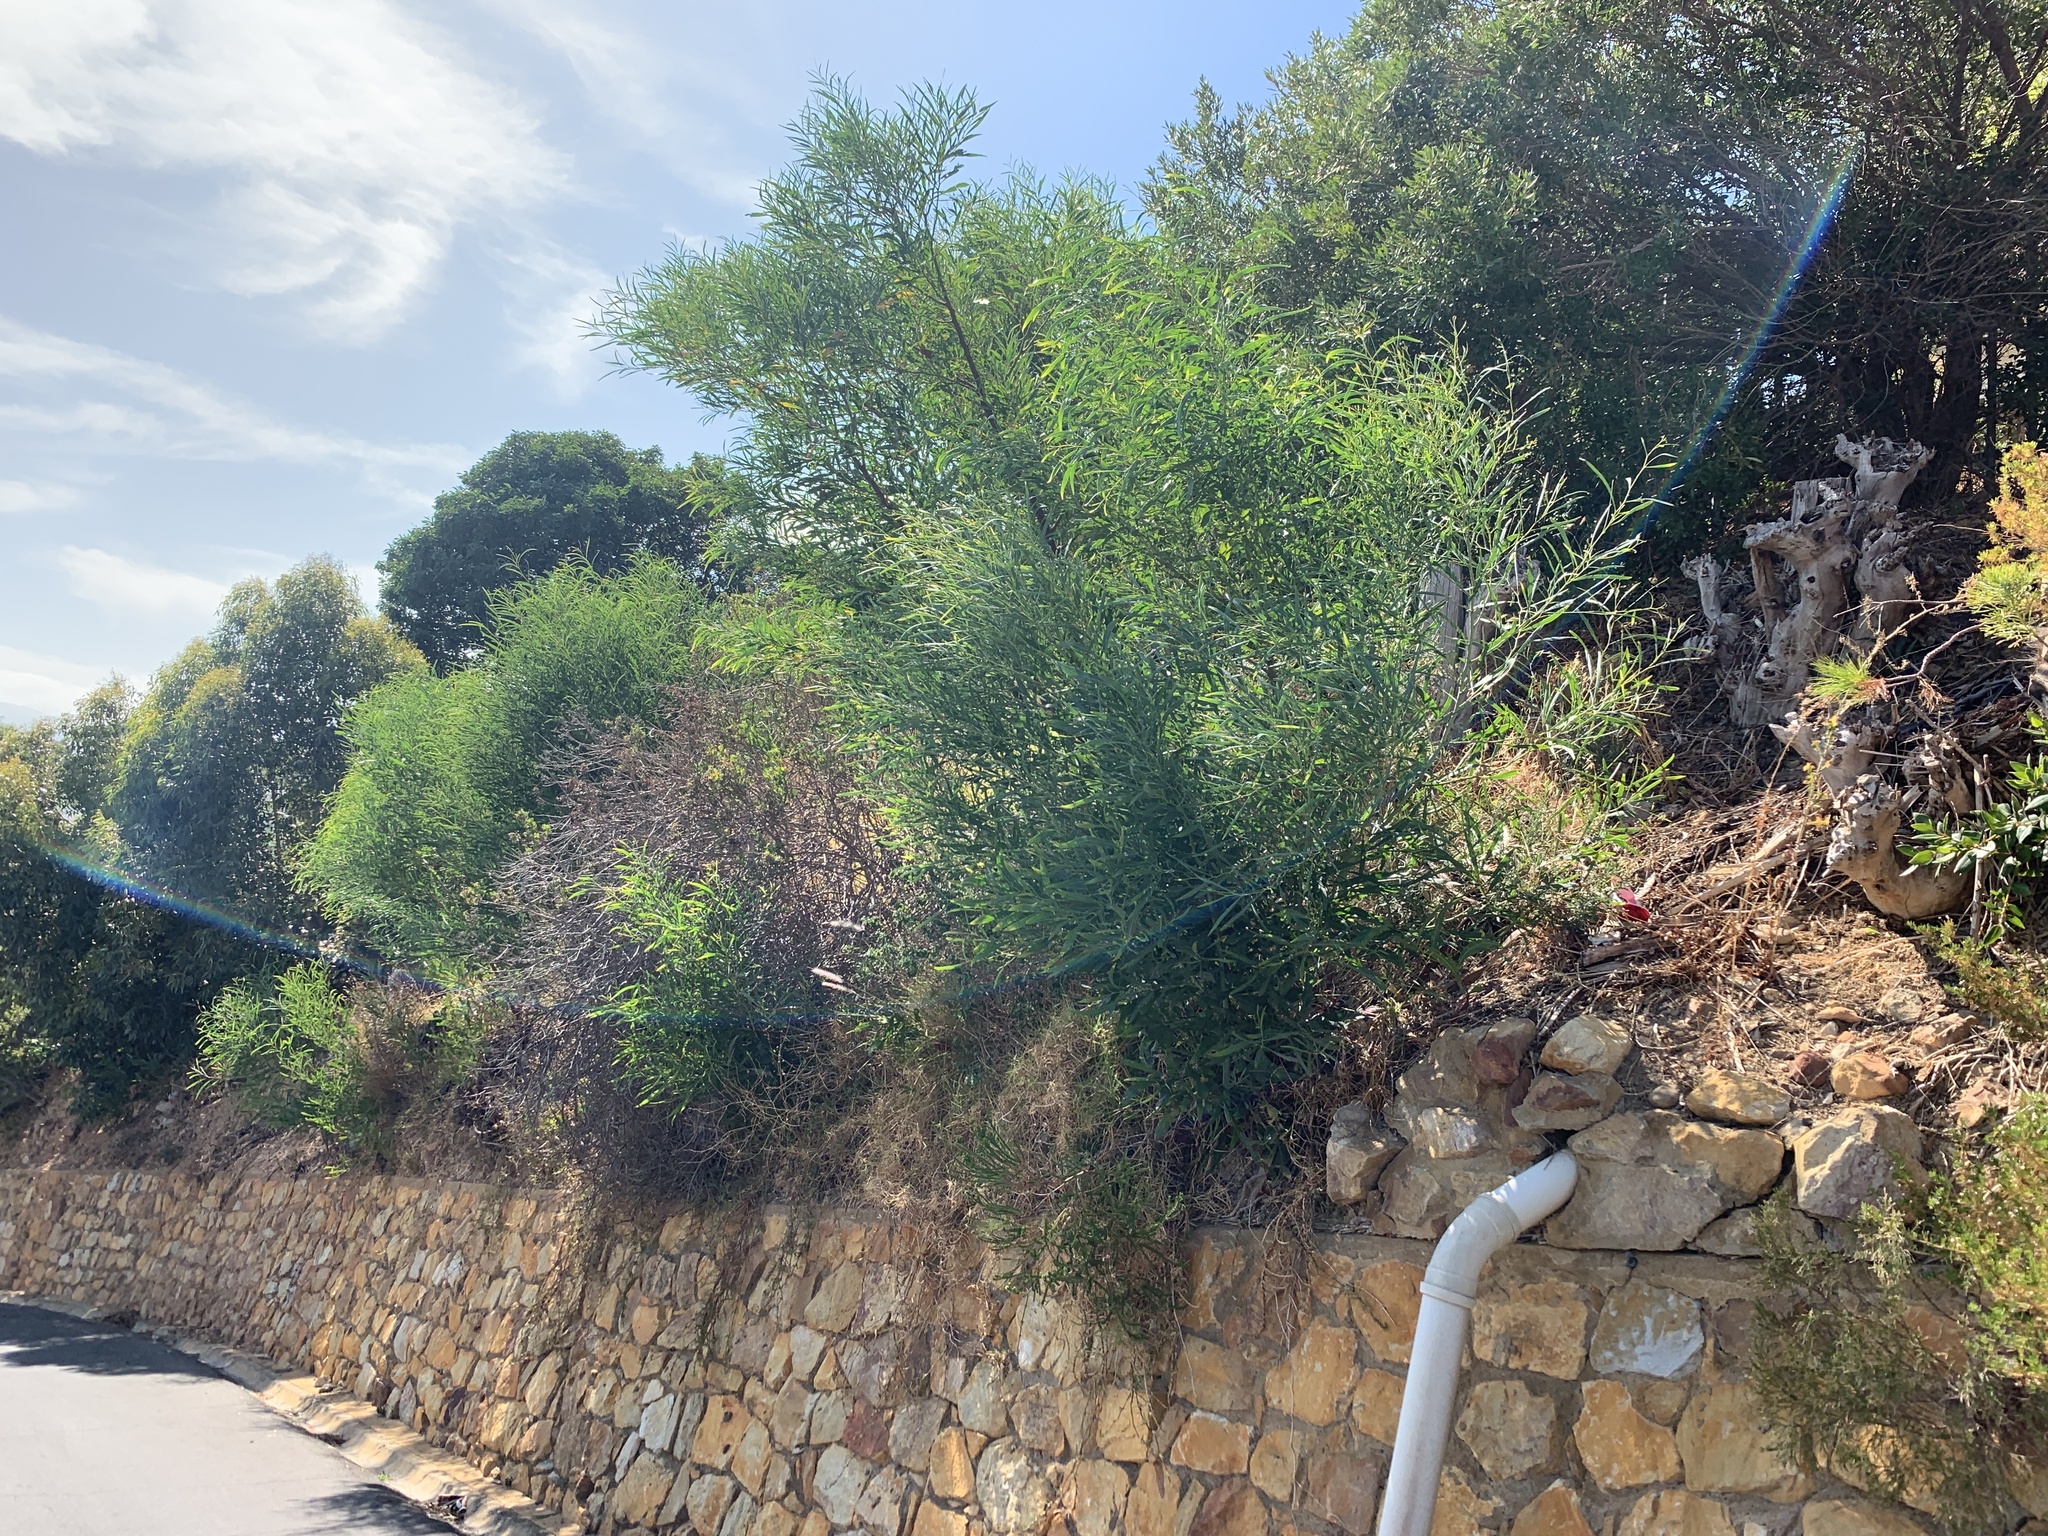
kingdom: Plantae
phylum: Tracheophyta
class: Magnoliopsida
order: Fabales
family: Fabaceae
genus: Acacia
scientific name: Acacia saligna
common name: Orange wattle
